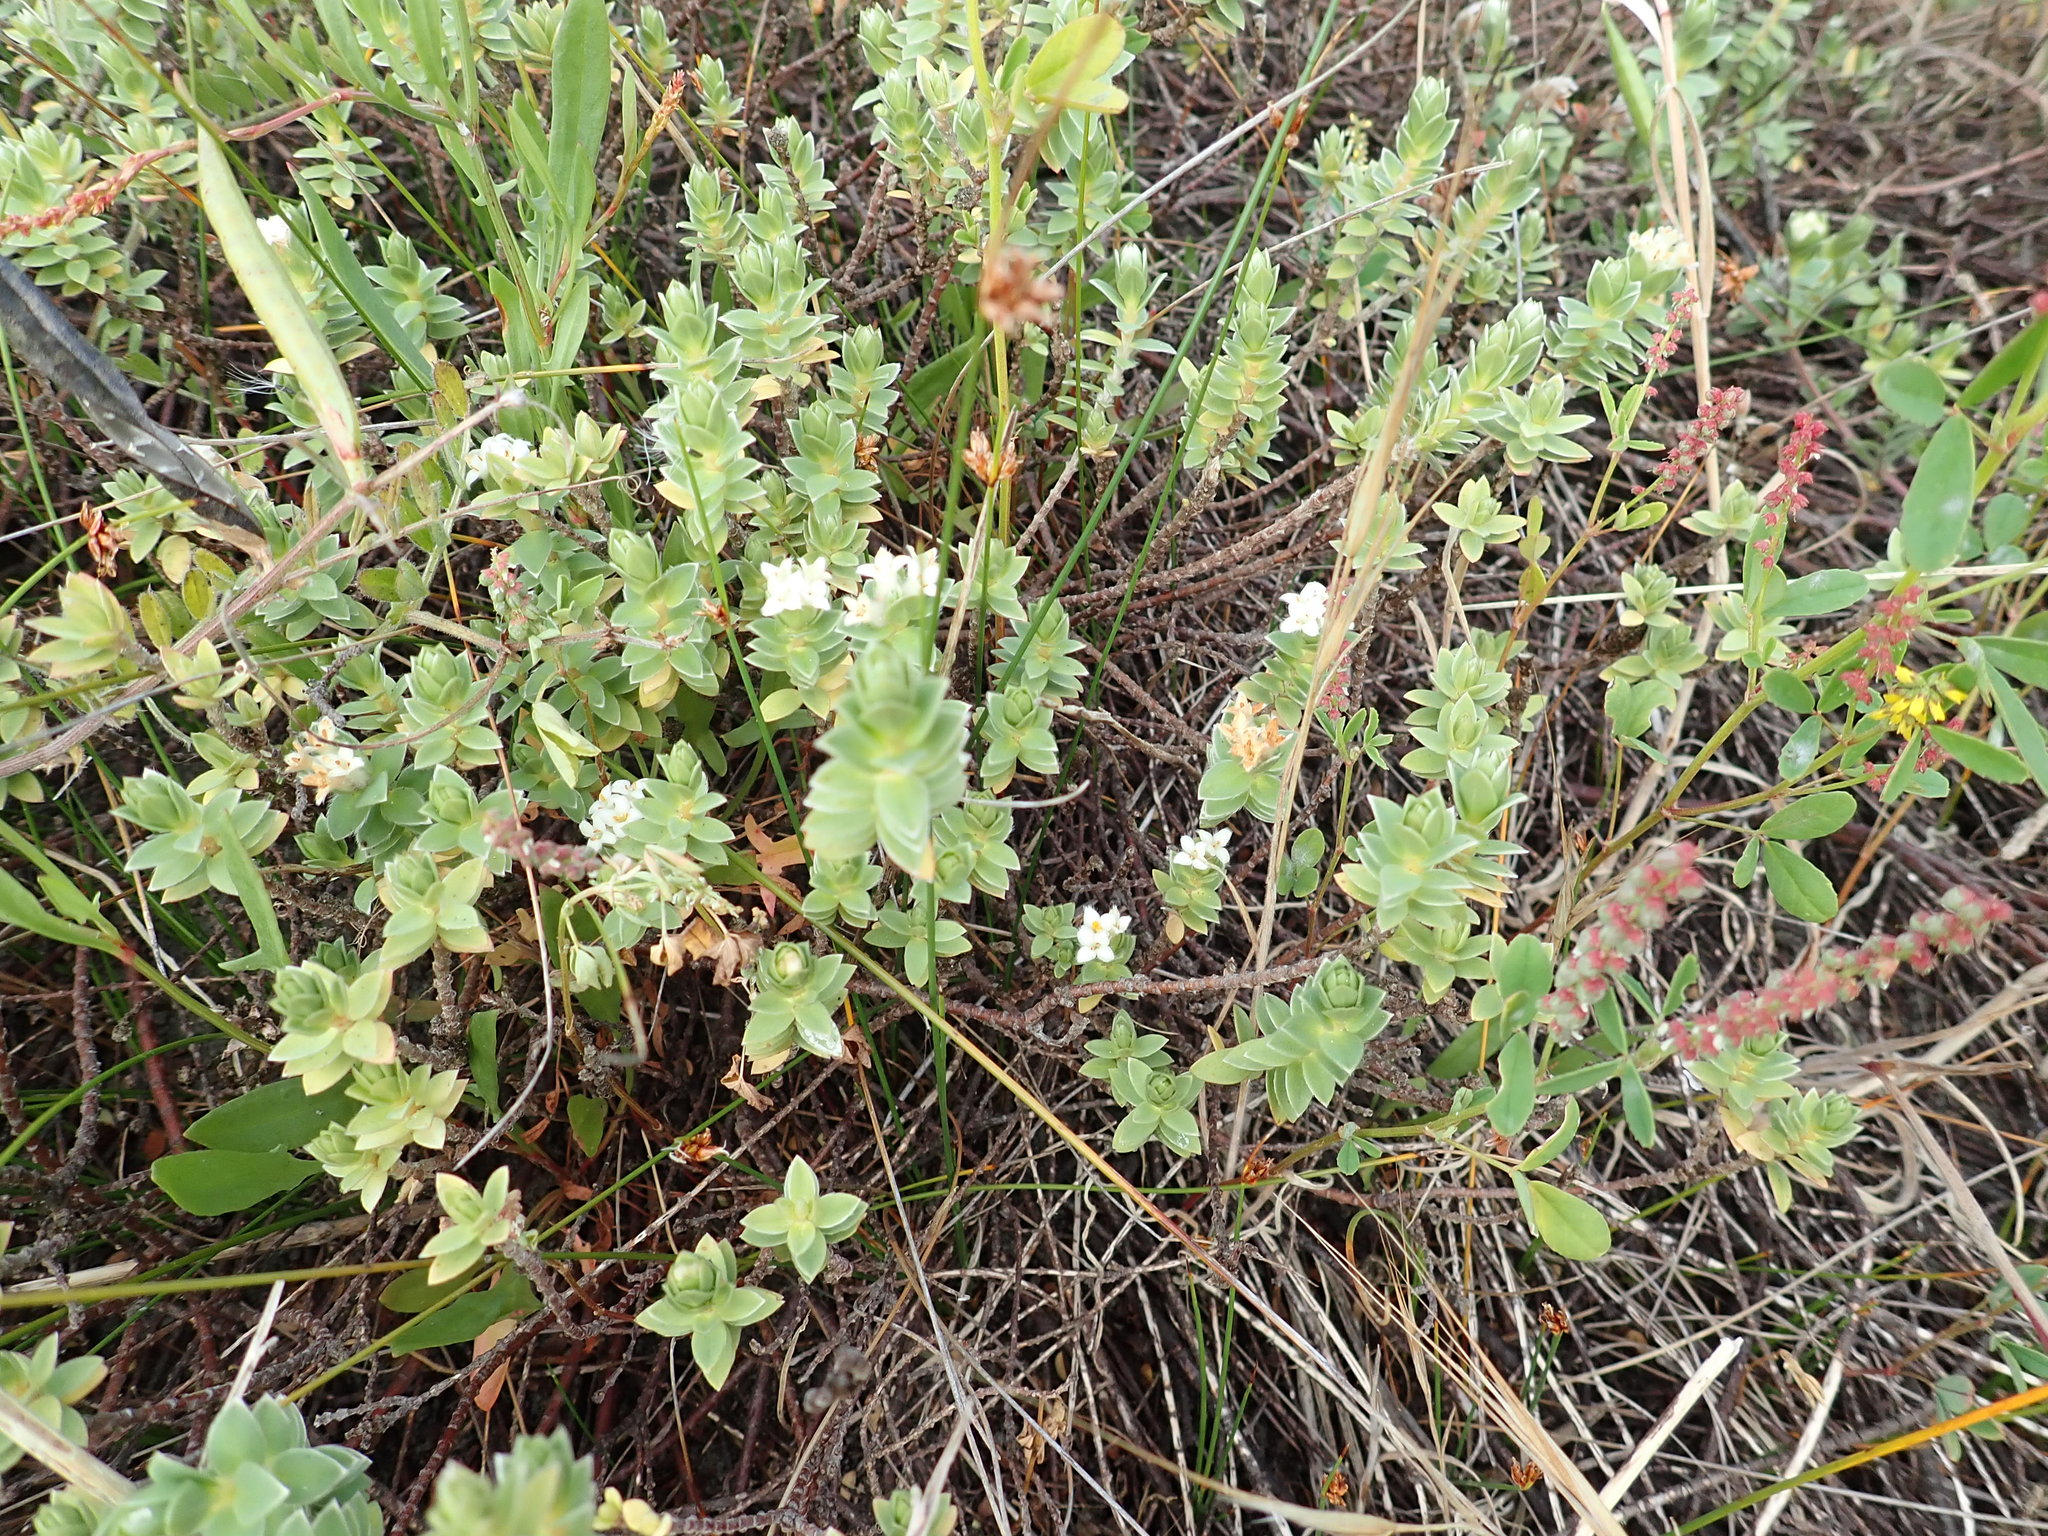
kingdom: Plantae
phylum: Tracheophyta
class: Magnoliopsida
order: Malvales
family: Thymelaeaceae
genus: Pimelea
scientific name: Pimelea villosa
